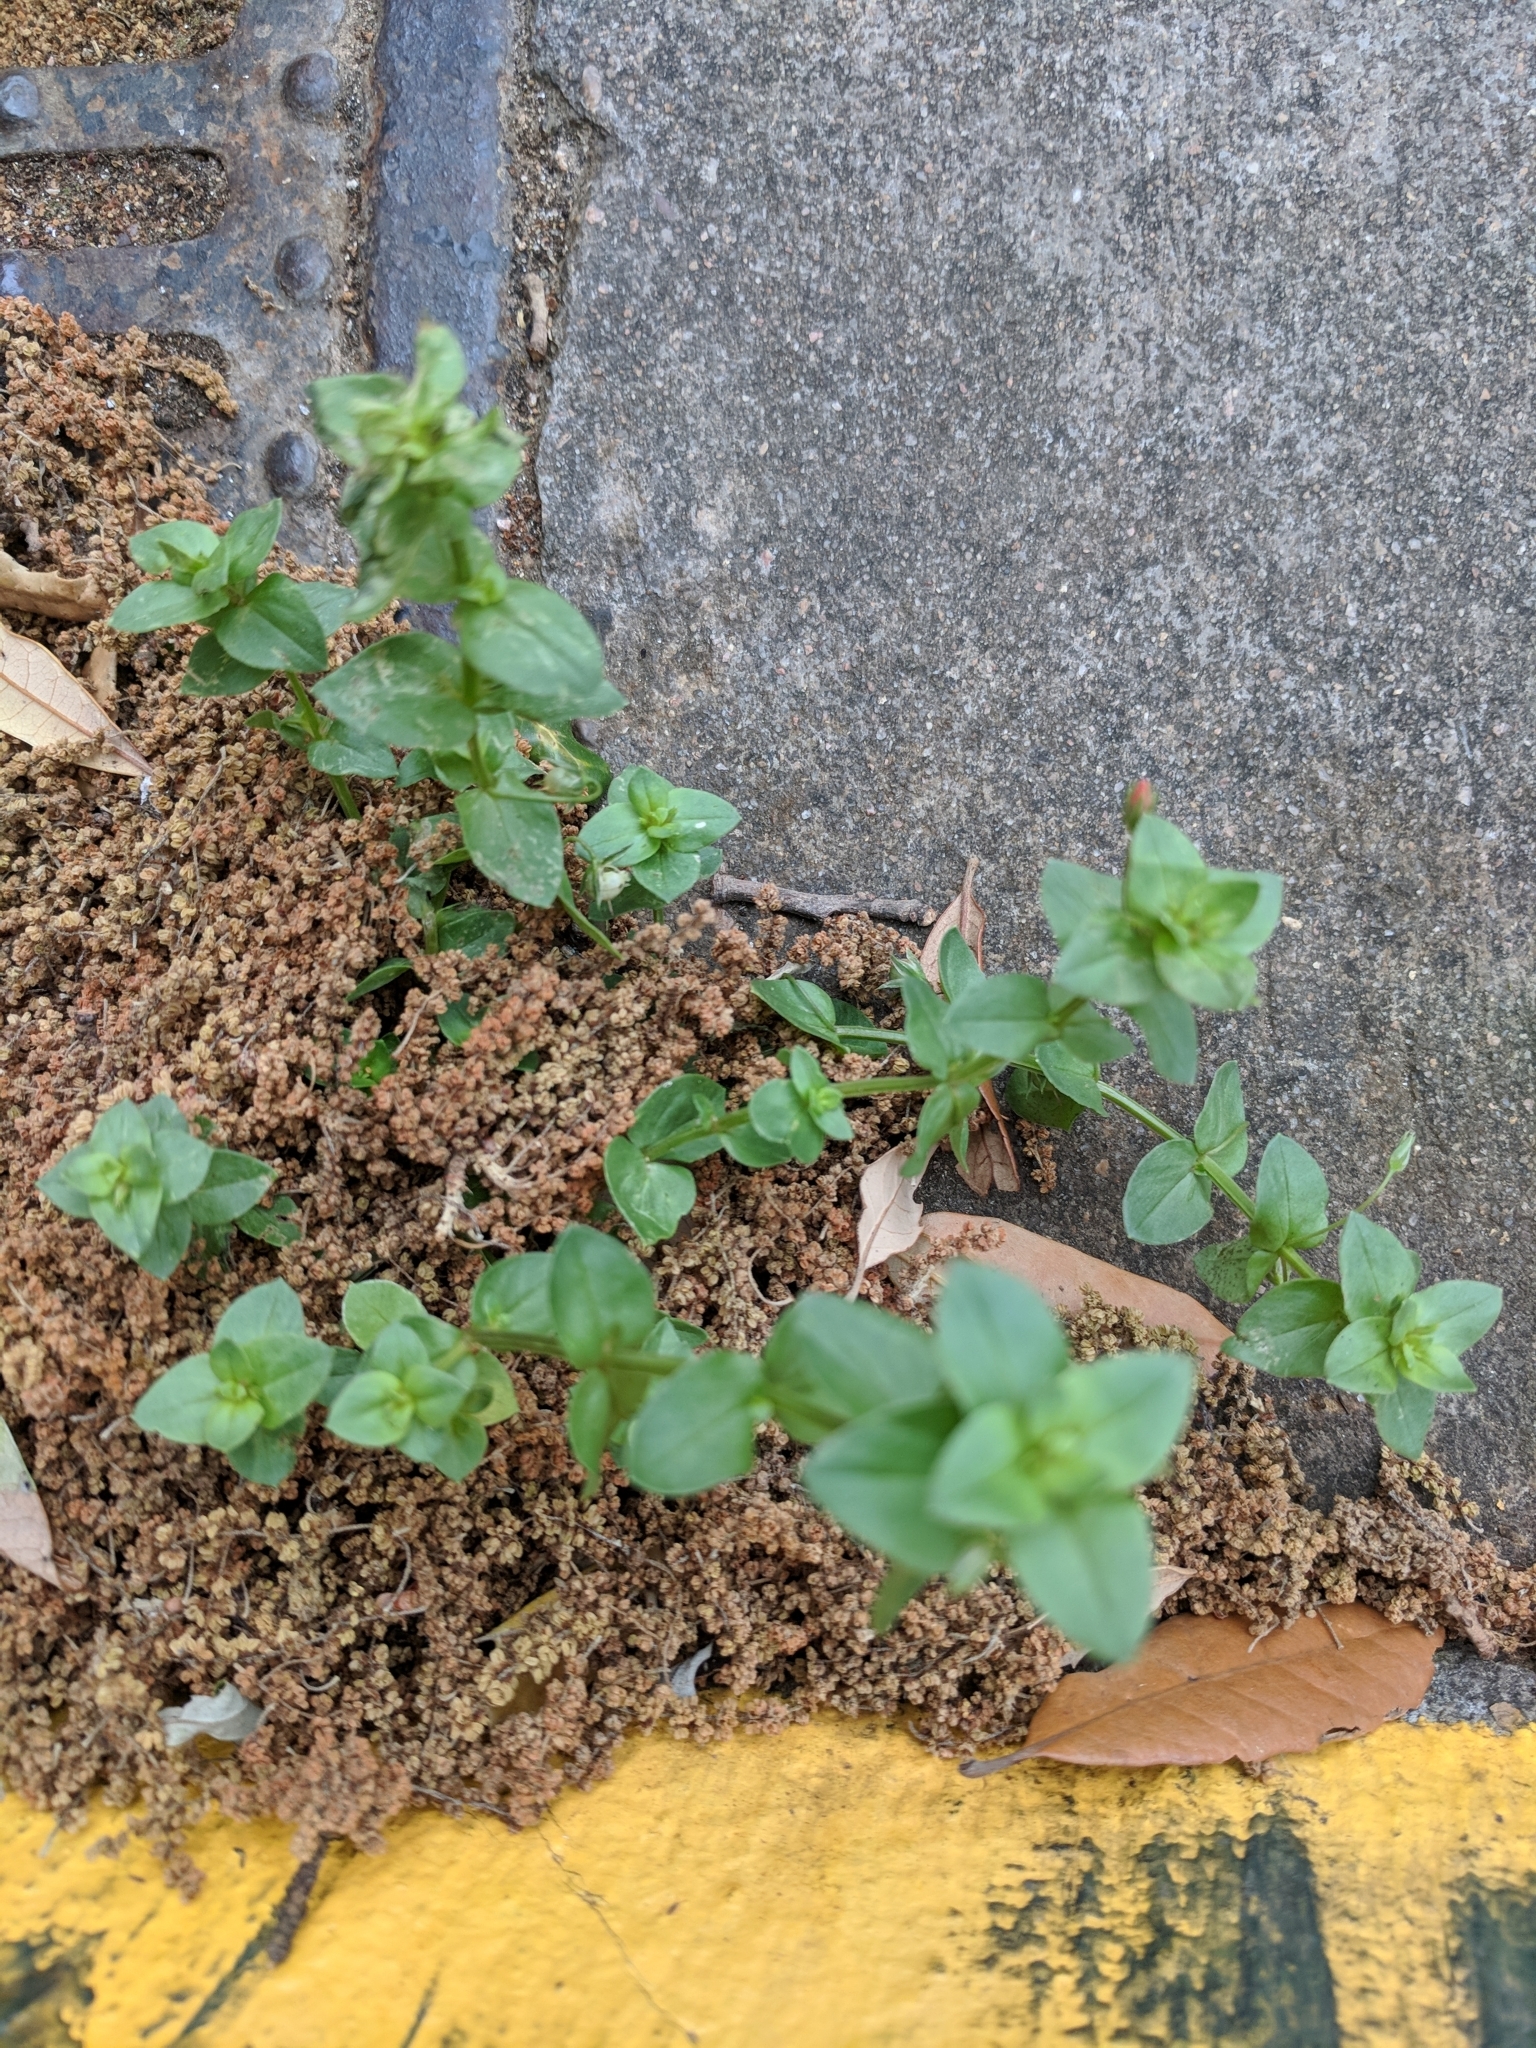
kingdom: Plantae
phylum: Tracheophyta
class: Magnoliopsida
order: Ericales
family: Primulaceae
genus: Lysimachia
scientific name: Lysimachia arvensis
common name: Scarlet pimpernel
